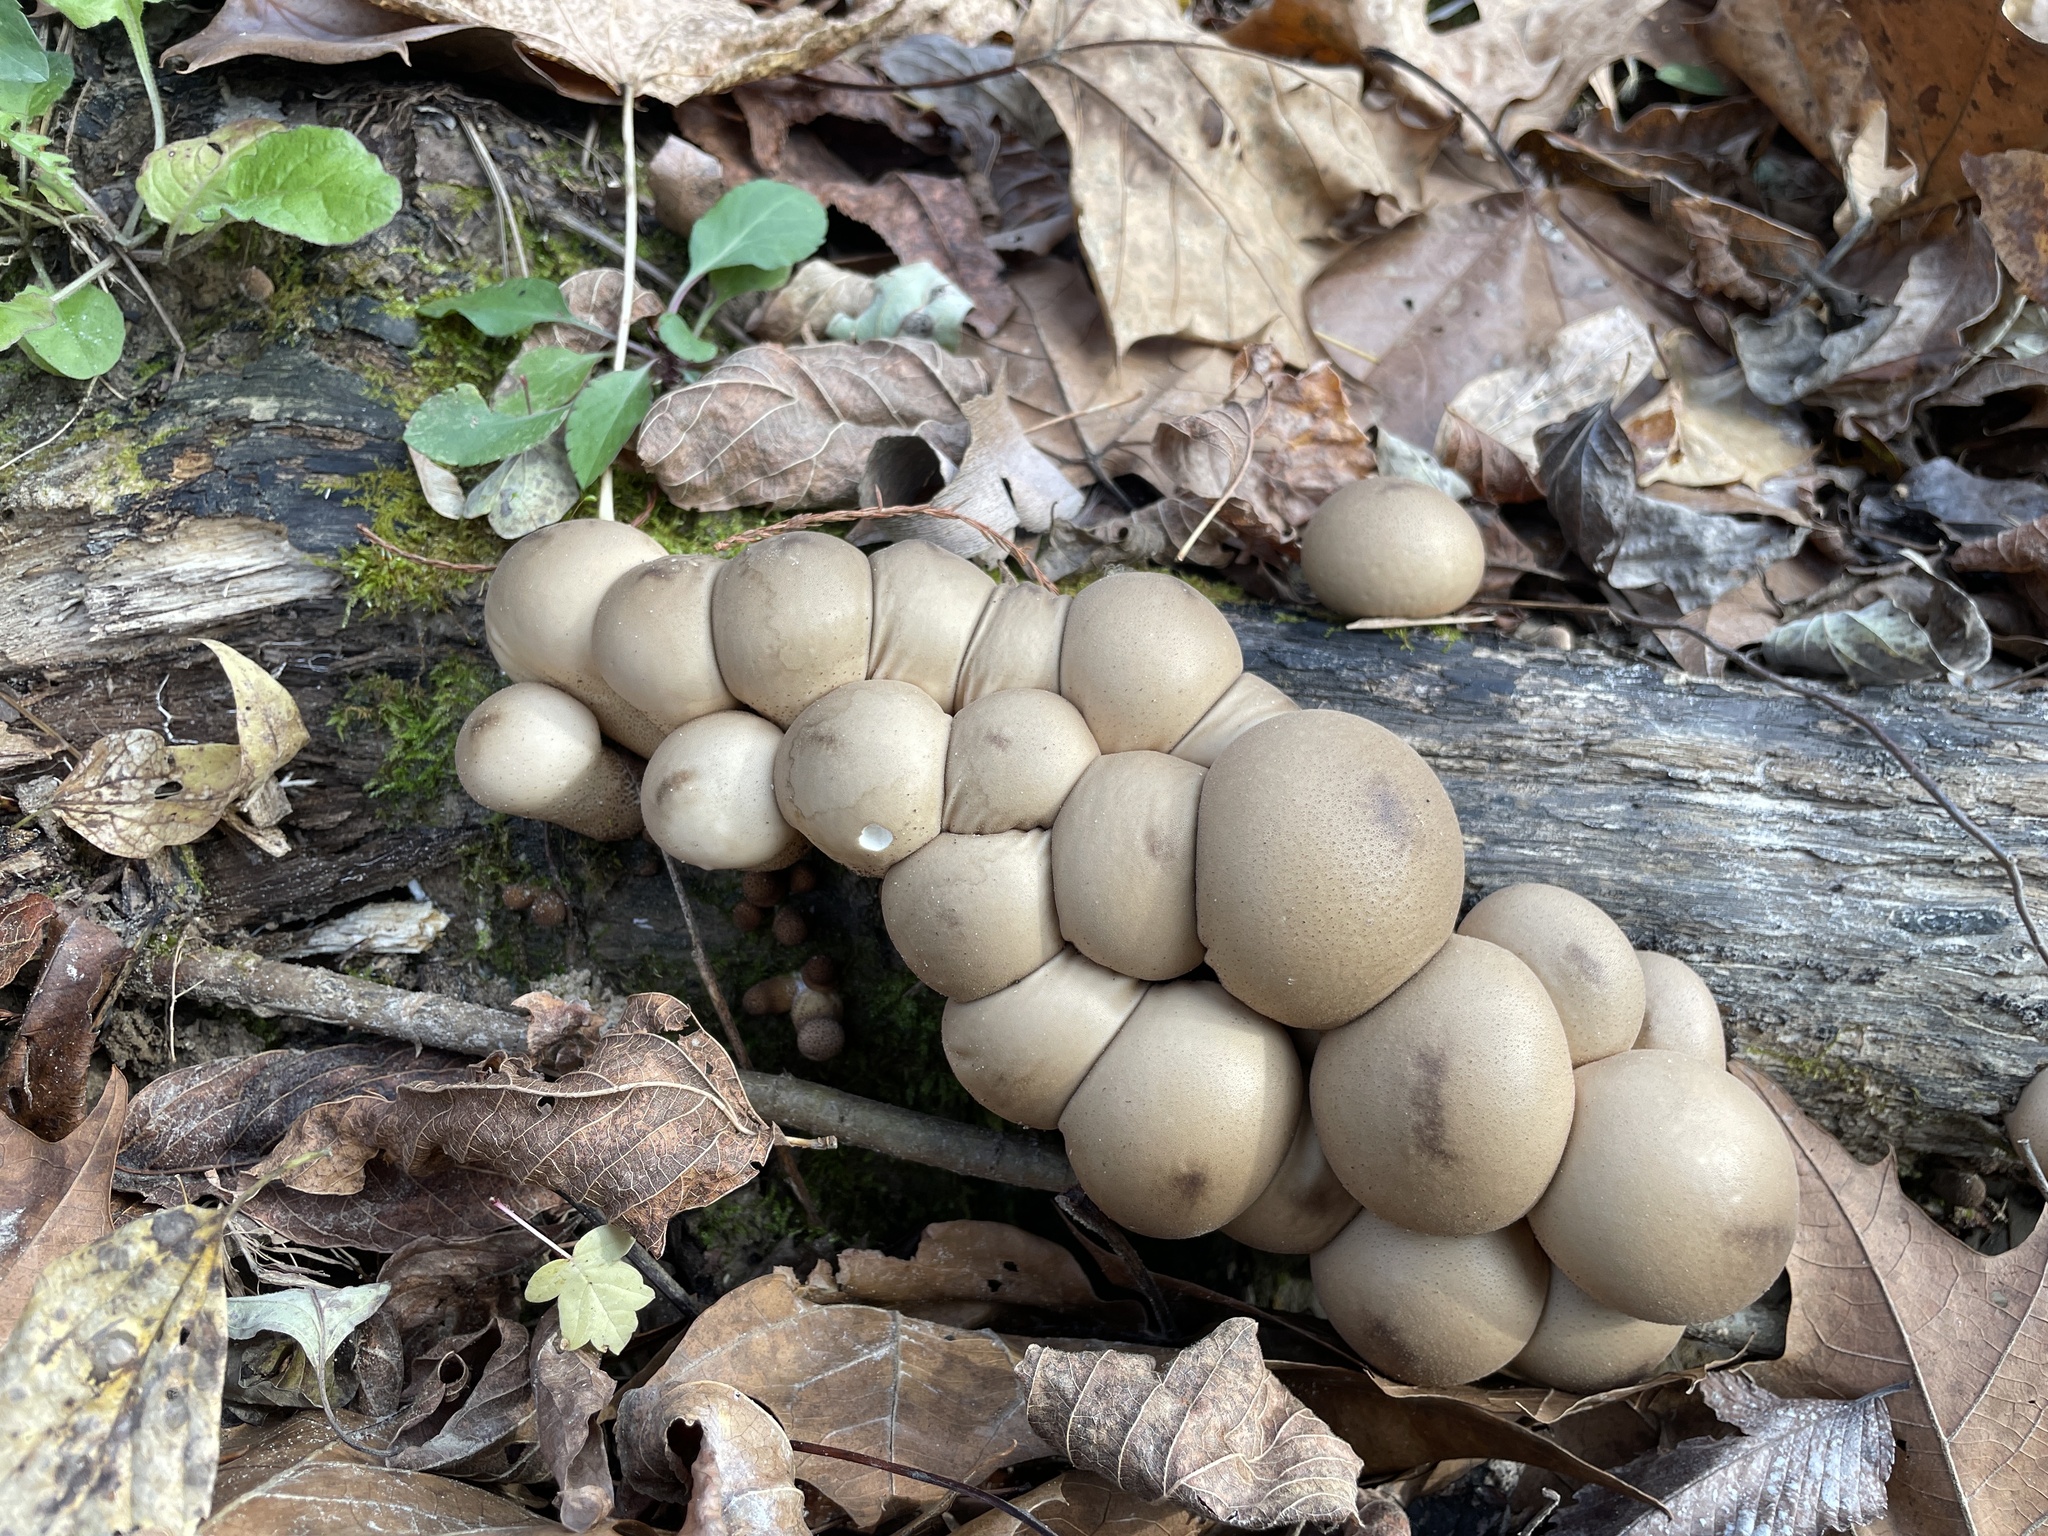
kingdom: Fungi
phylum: Basidiomycota
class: Agaricomycetes
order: Agaricales
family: Lycoperdaceae
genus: Apioperdon
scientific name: Apioperdon pyriforme
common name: Pear-shaped puffball
